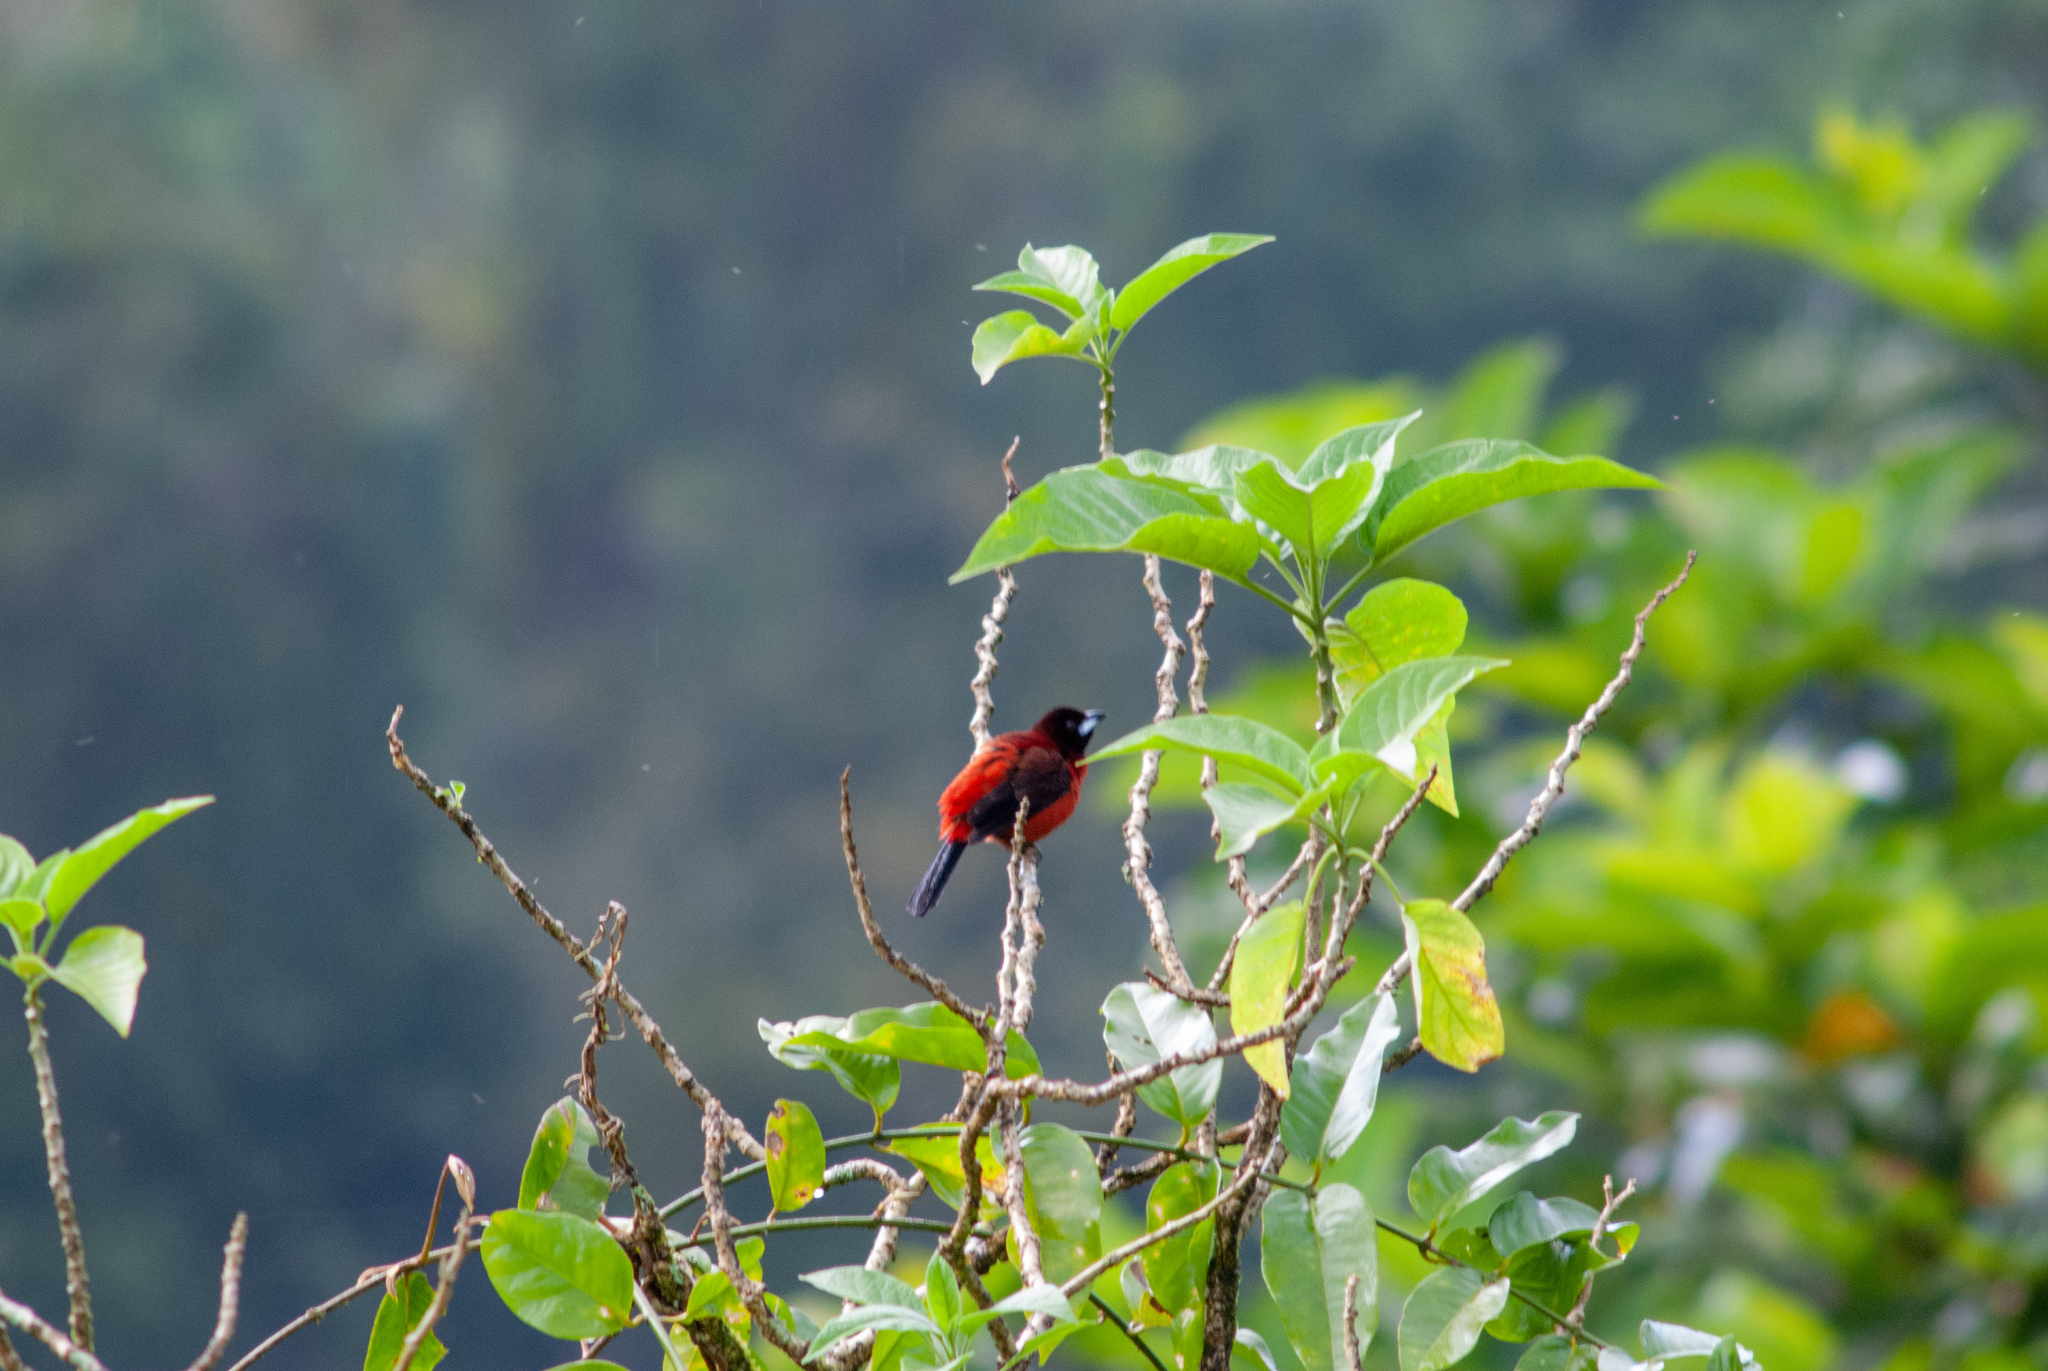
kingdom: Animalia
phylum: Chordata
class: Aves
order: Passeriformes
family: Thraupidae
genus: Ramphocelus
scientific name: Ramphocelus dimidiatus
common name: Crimson-backed tanager
